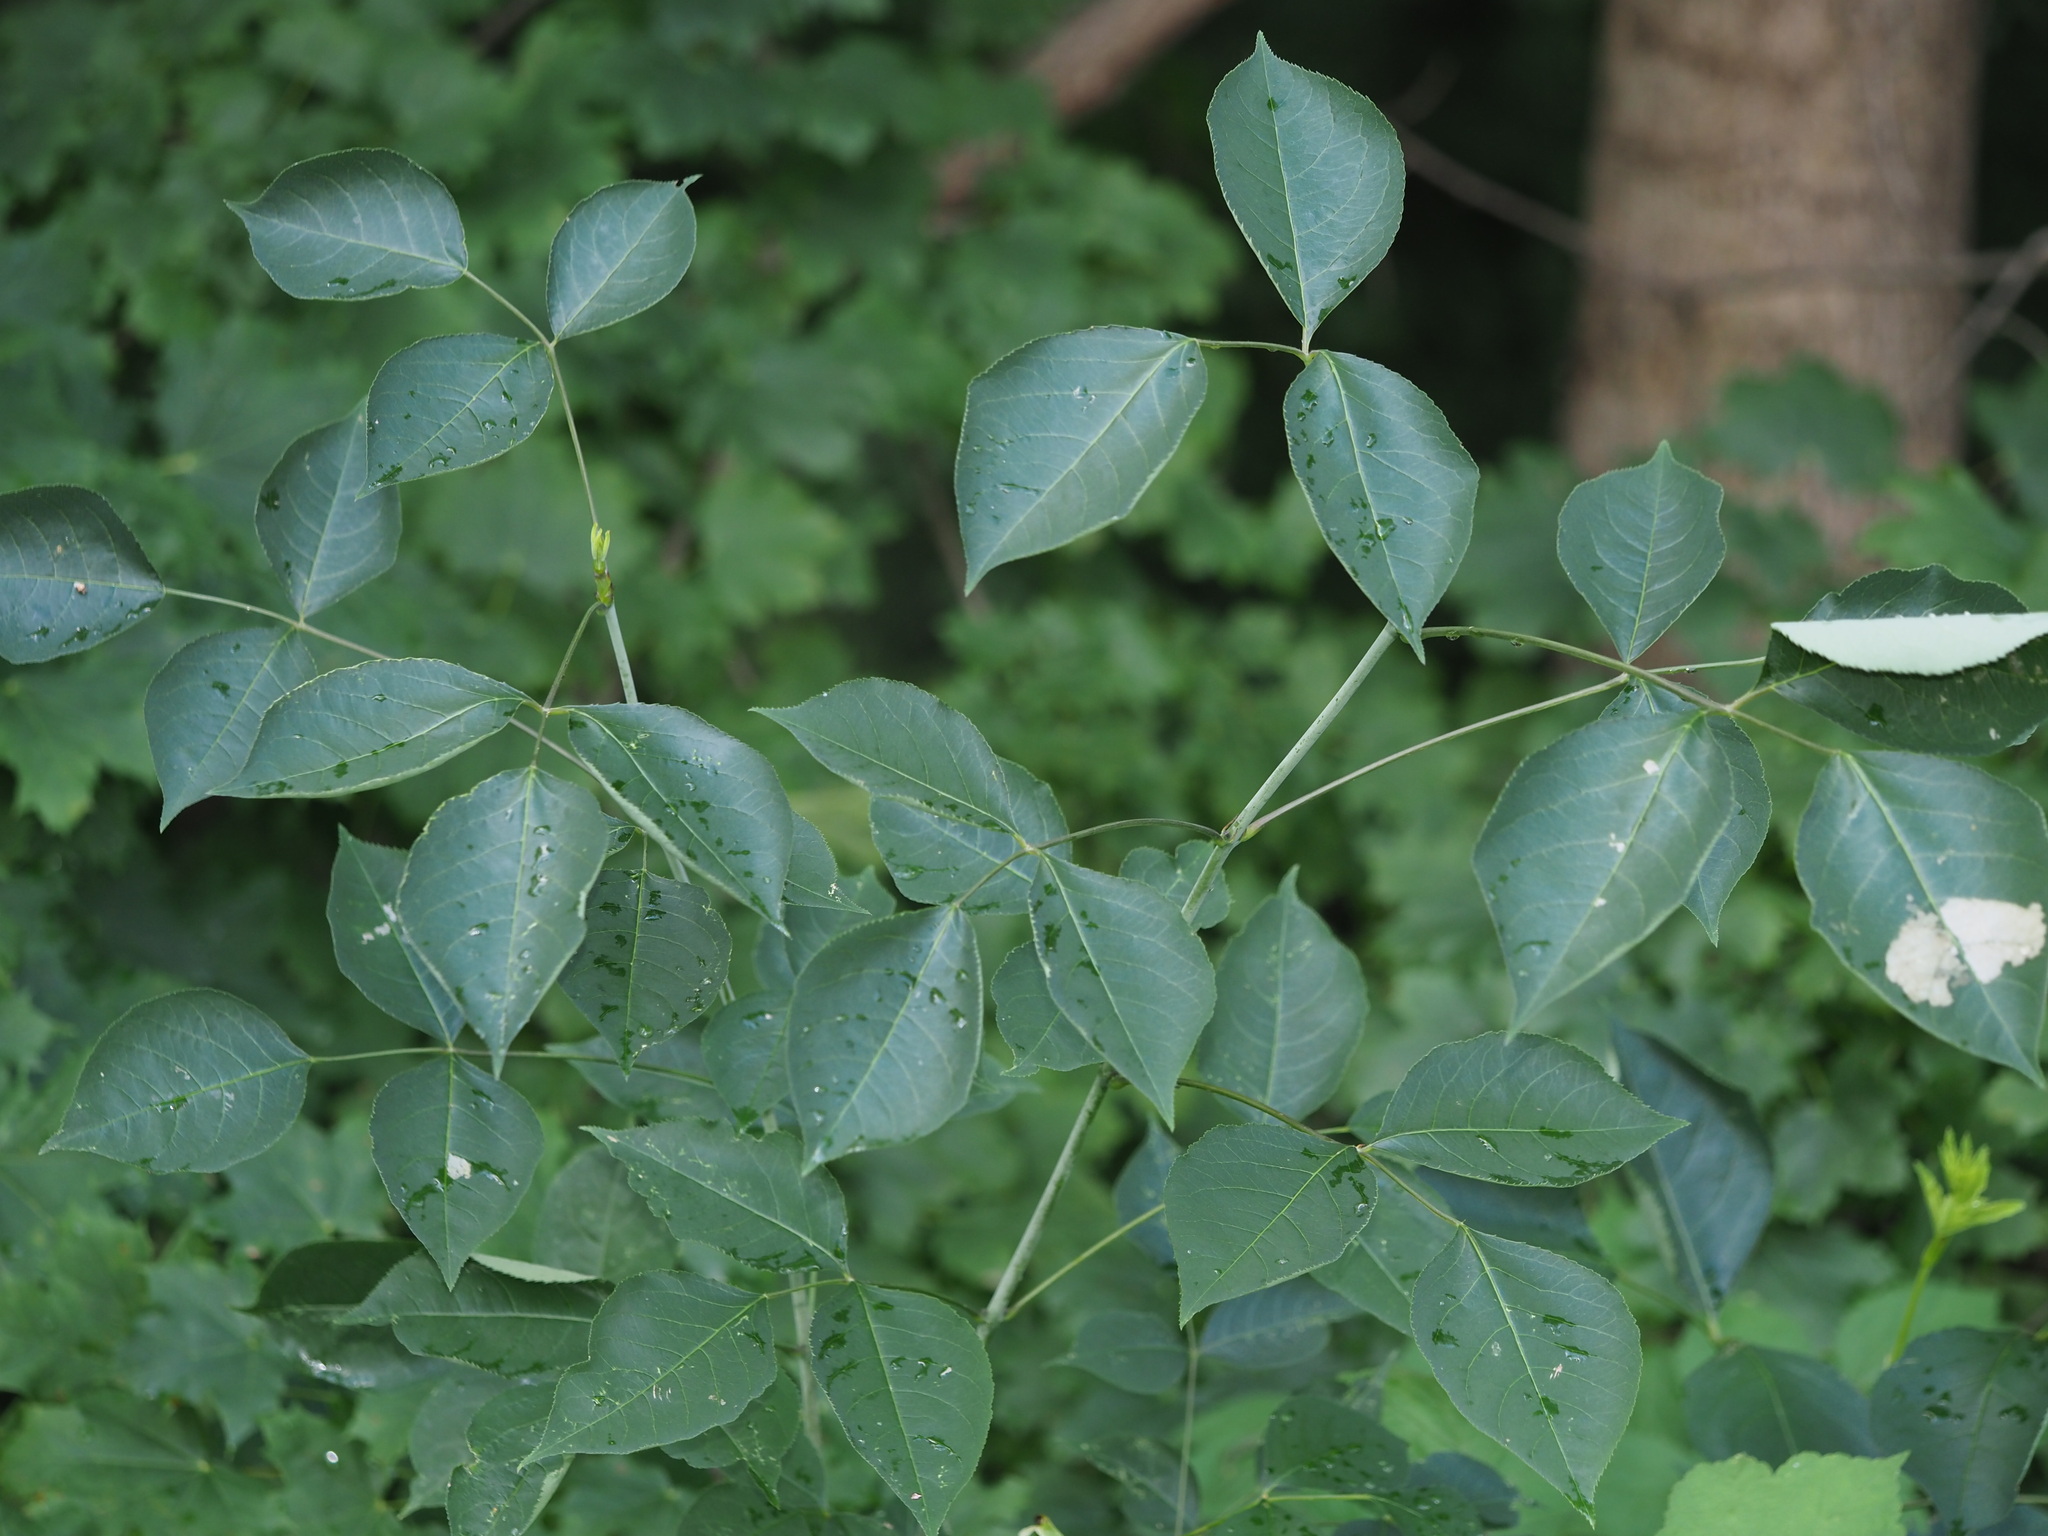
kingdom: Plantae
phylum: Tracheophyta
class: Magnoliopsida
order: Crossosomatales
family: Staphyleaceae
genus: Staphylea
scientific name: Staphylea trifolia
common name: American bladdernut
